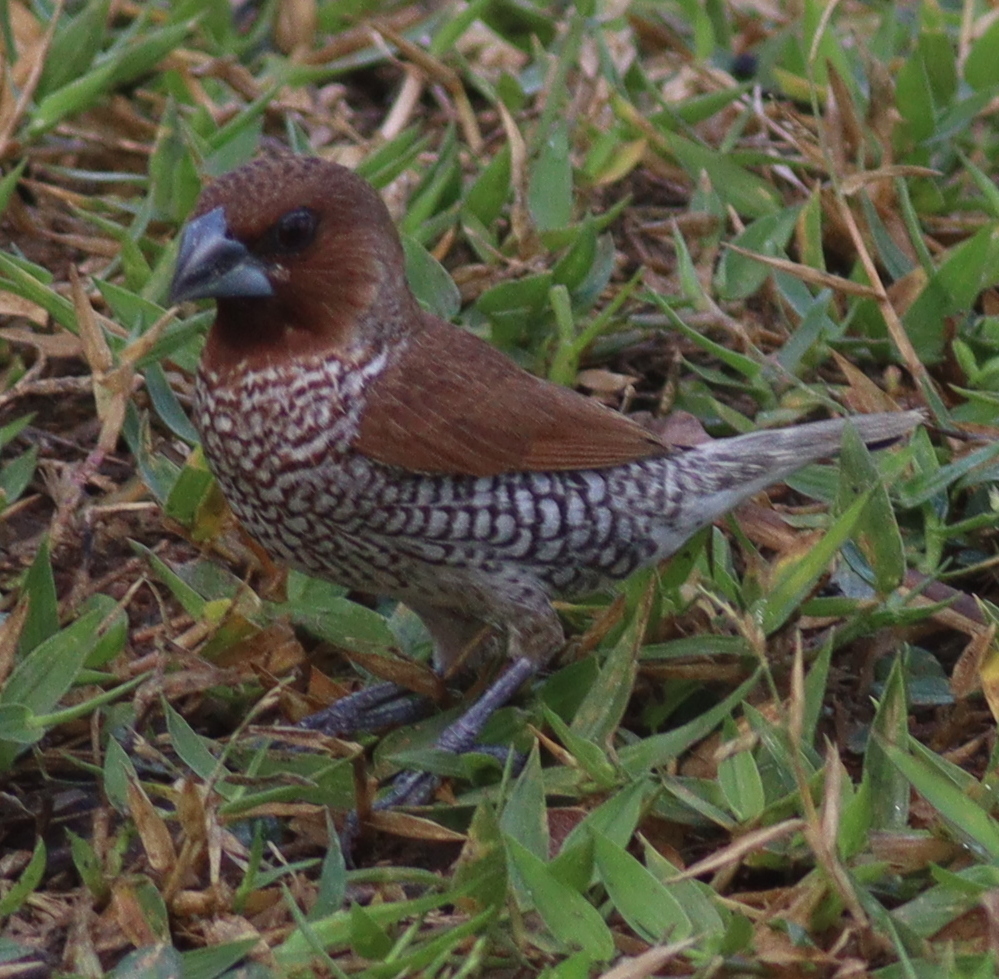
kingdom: Animalia
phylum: Chordata
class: Aves
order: Passeriformes
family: Estrildidae
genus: Lonchura
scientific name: Lonchura punctulata
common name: Scaly-breasted munia
